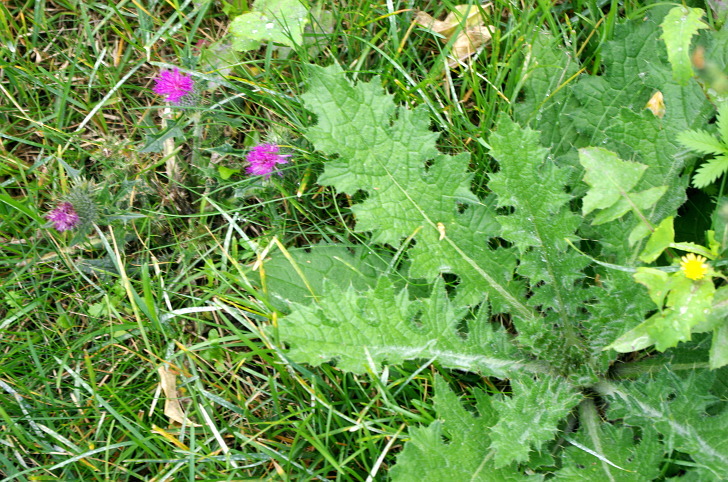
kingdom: Plantae
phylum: Tracheophyta
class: Magnoliopsida
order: Asterales
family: Asteraceae
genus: Cirsium
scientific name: Cirsium vulgare
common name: Bull thistle
